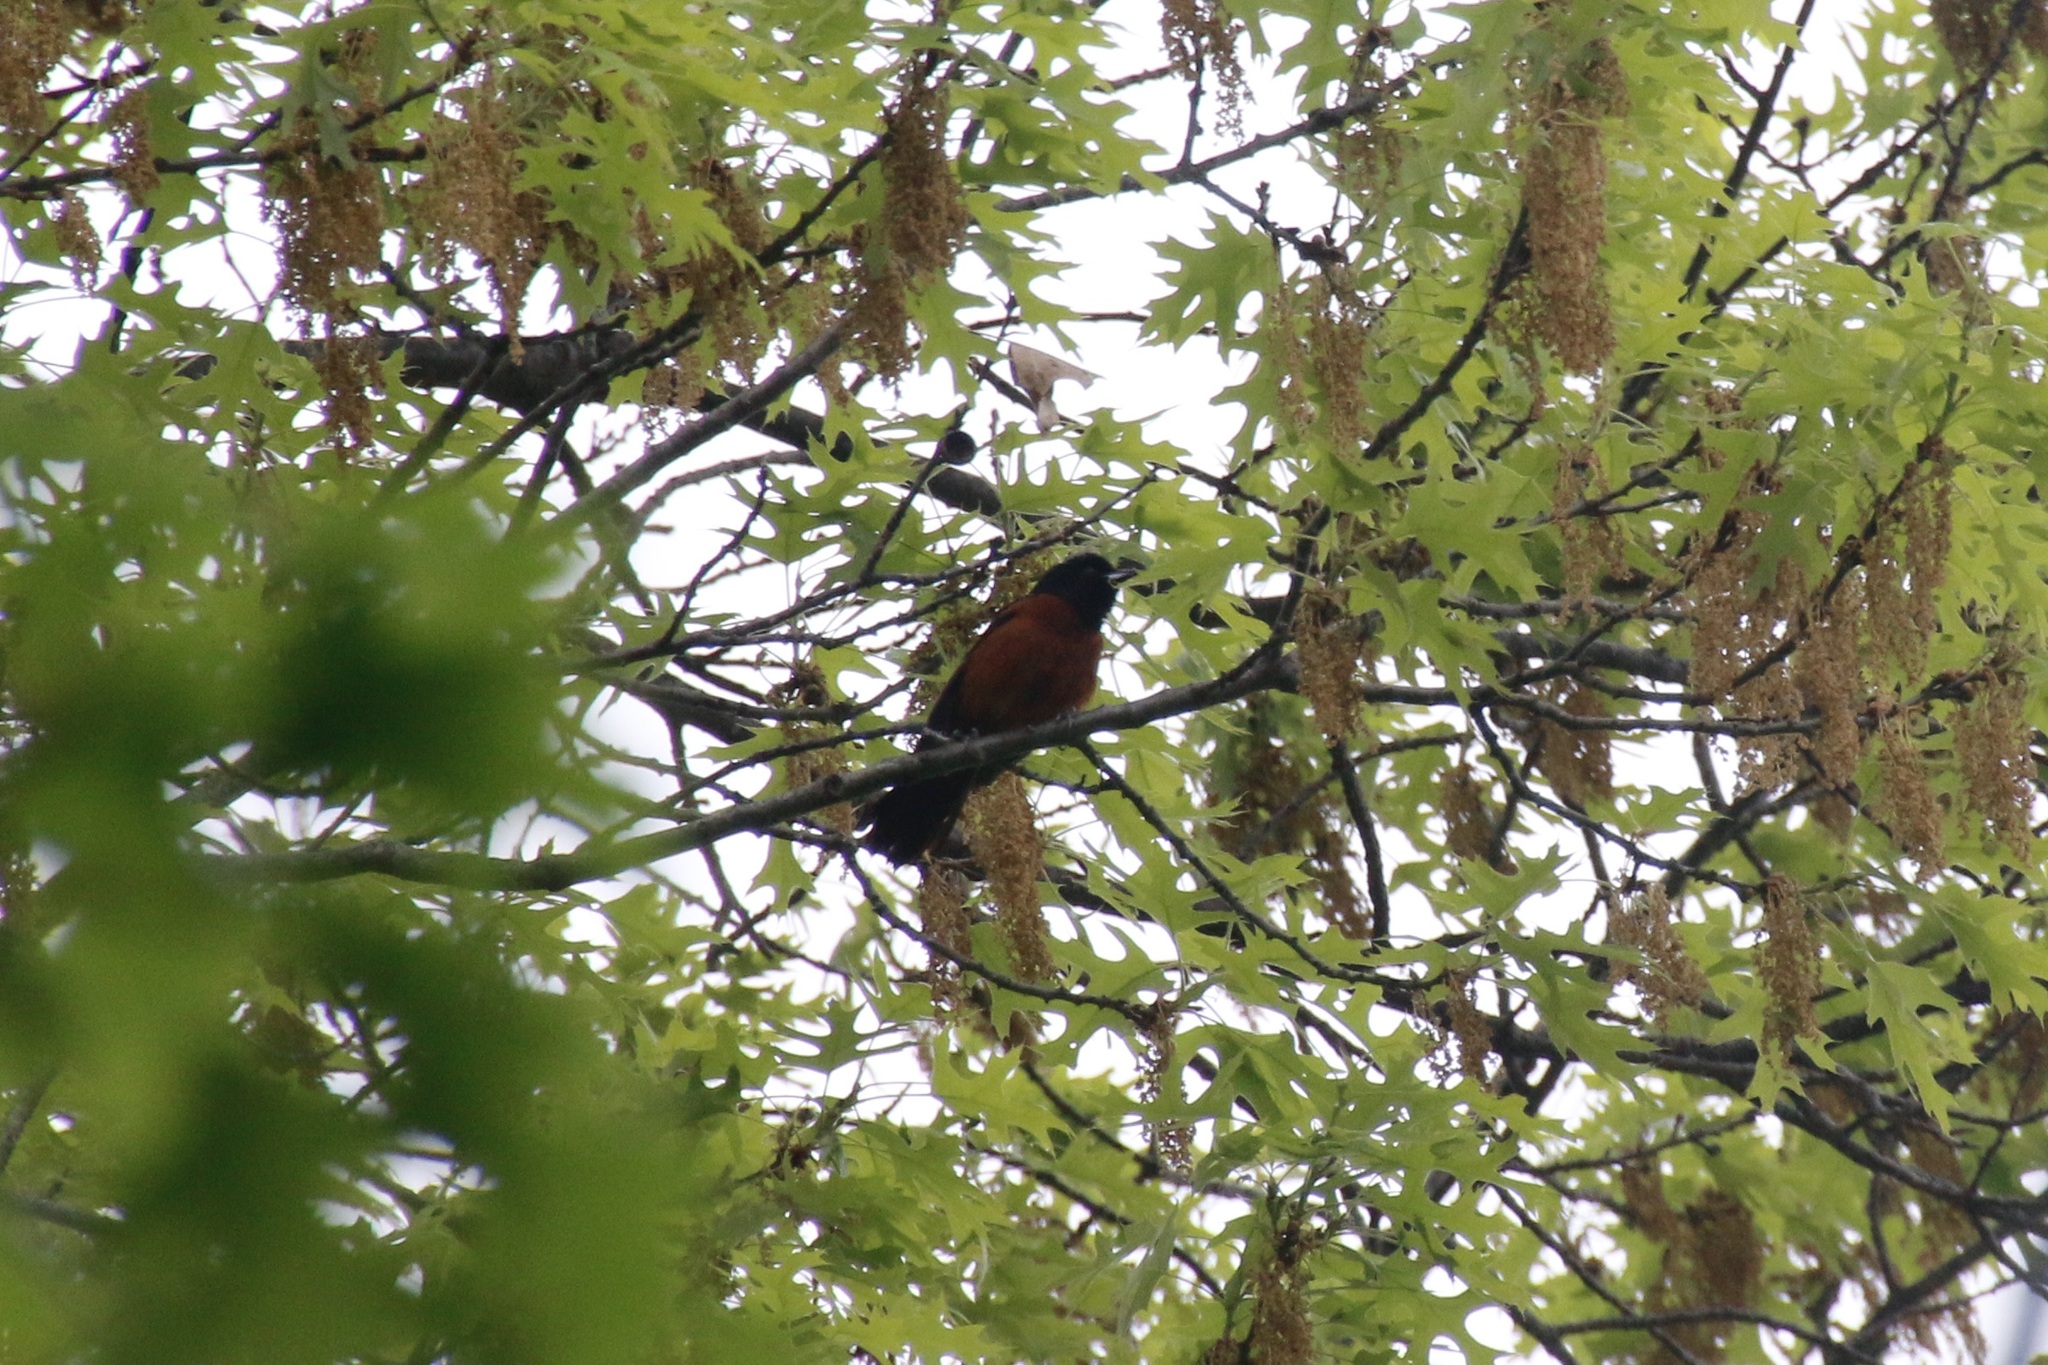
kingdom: Animalia
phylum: Chordata
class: Aves
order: Passeriformes
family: Icteridae
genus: Icterus
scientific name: Icterus spurius
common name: Orchard oriole
